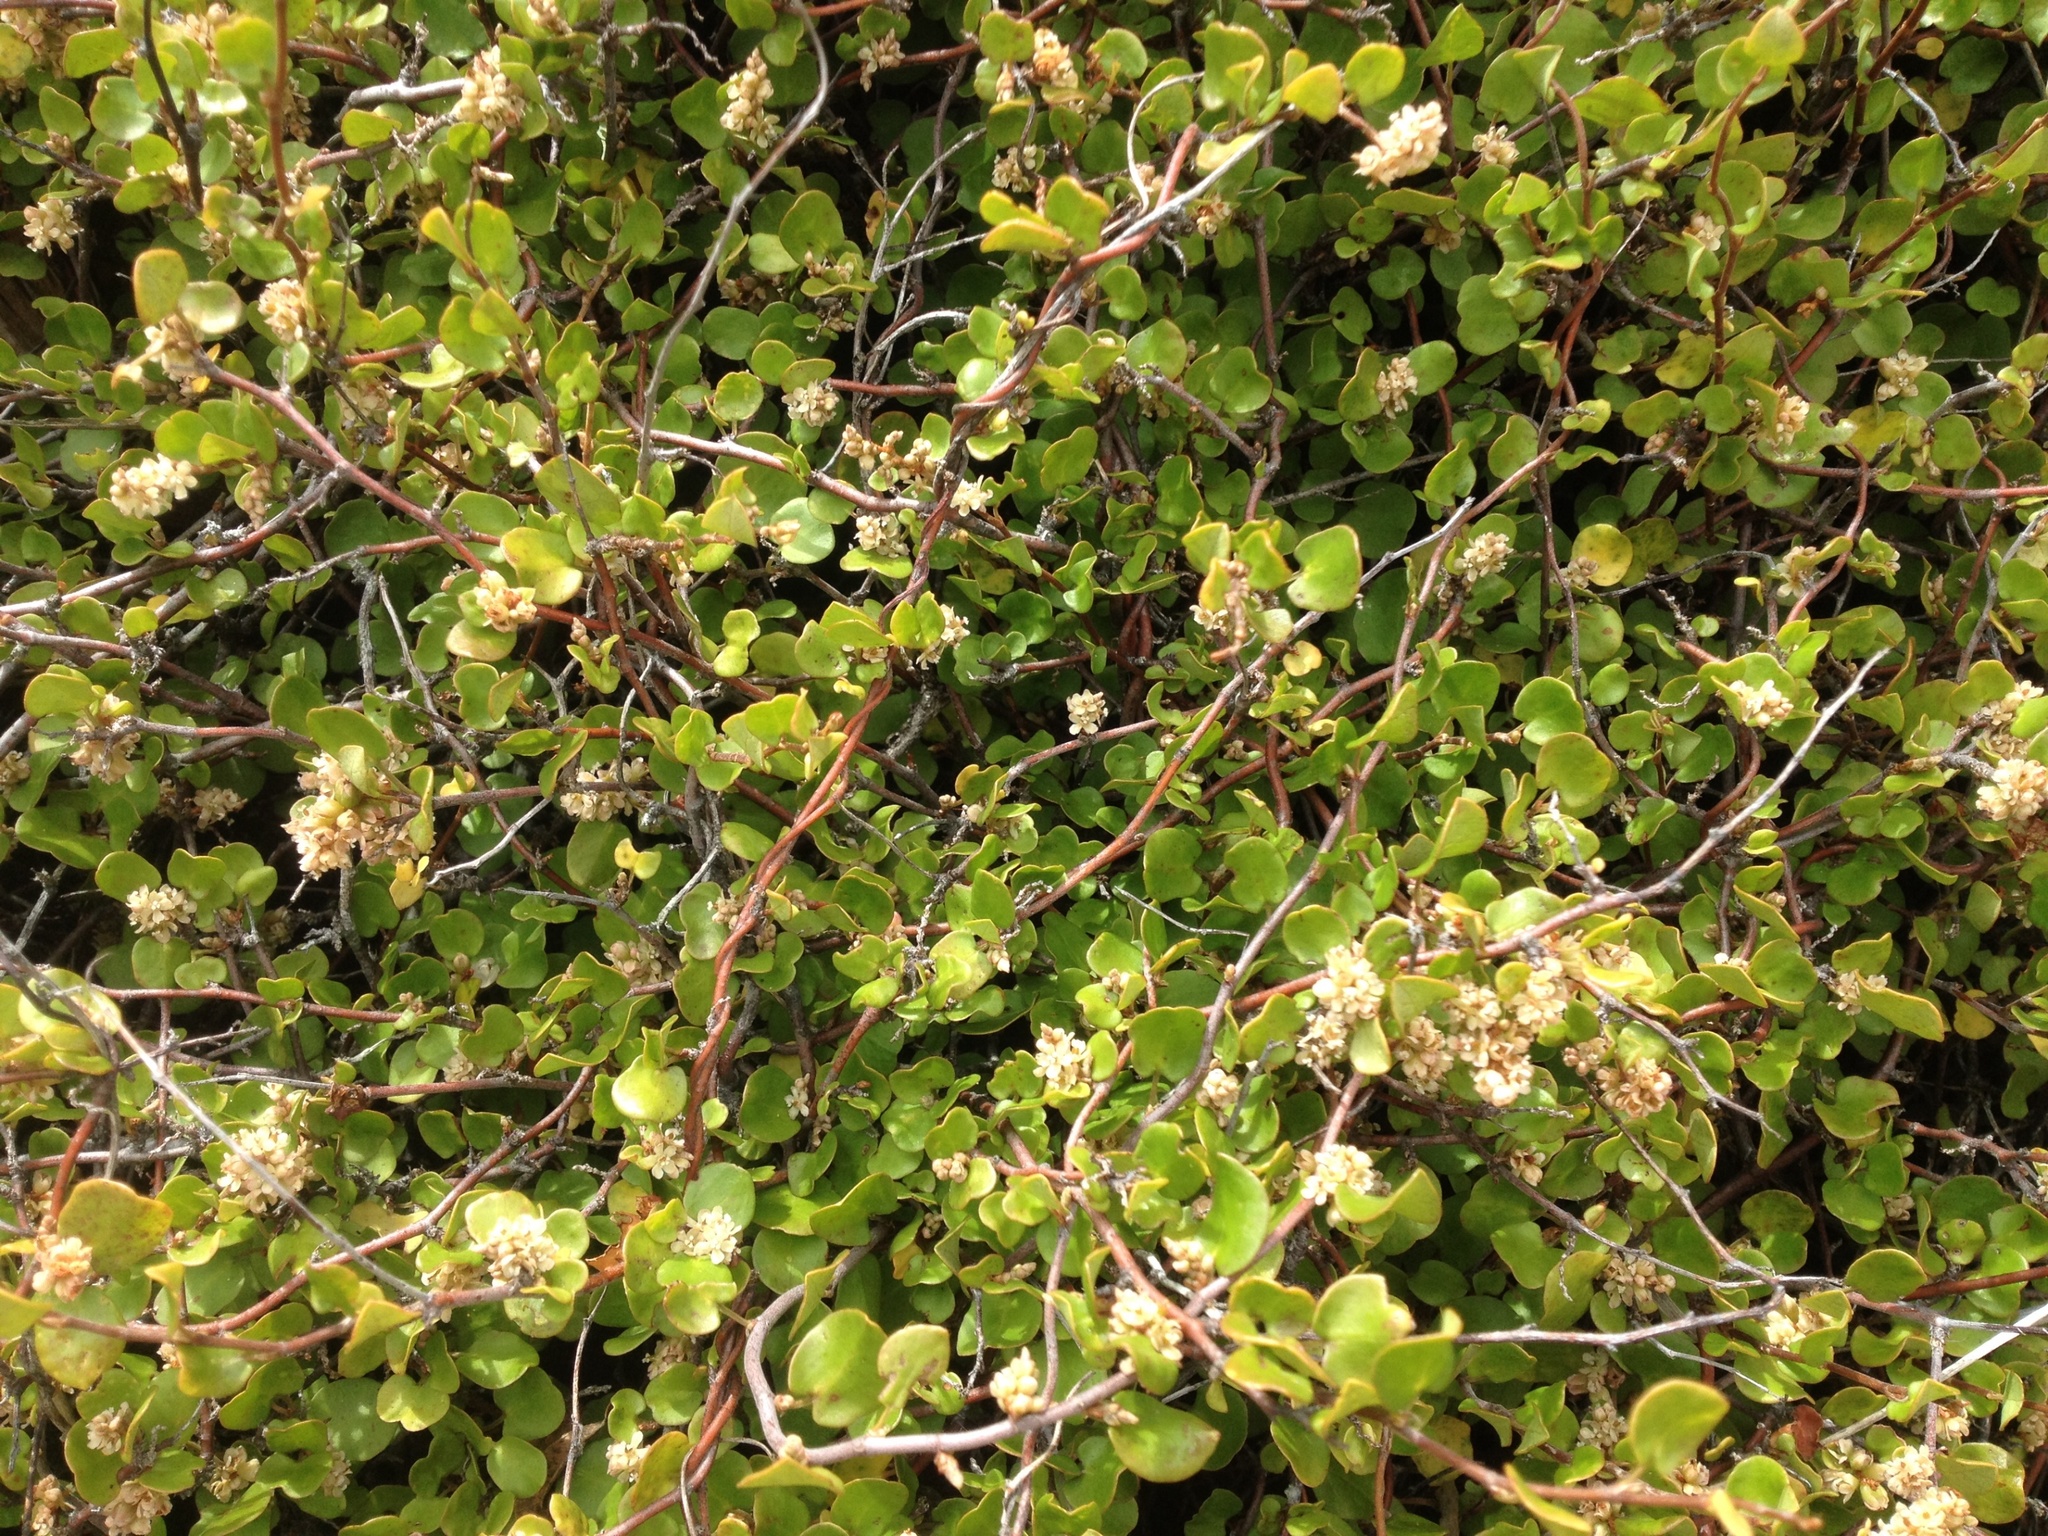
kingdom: Plantae
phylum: Tracheophyta
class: Magnoliopsida
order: Caryophyllales
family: Polygonaceae
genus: Muehlenbeckia
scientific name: Muehlenbeckia complexa
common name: Wireplant
